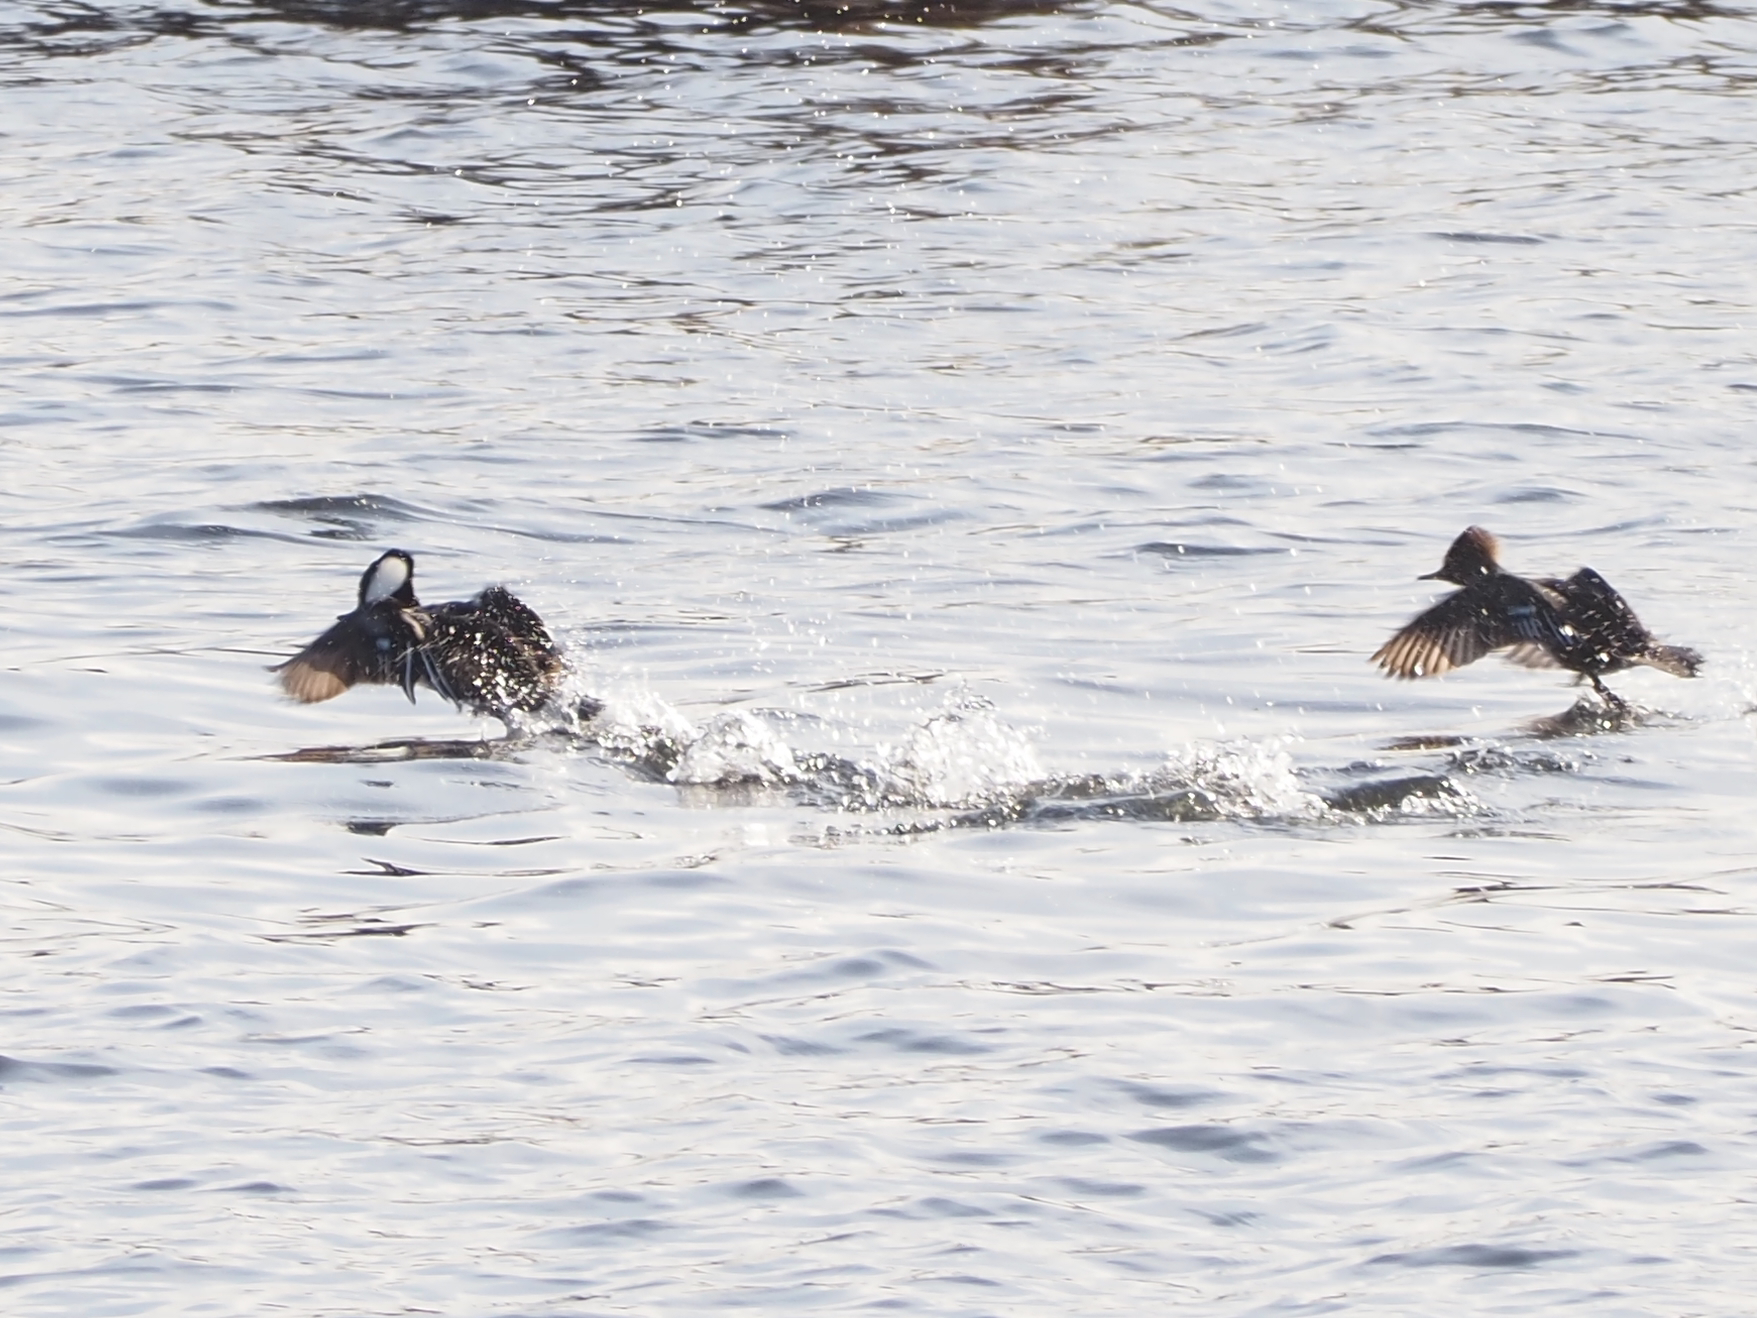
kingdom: Animalia
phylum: Chordata
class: Aves
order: Anseriformes
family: Anatidae
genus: Lophodytes
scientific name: Lophodytes cucullatus
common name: Hooded merganser
